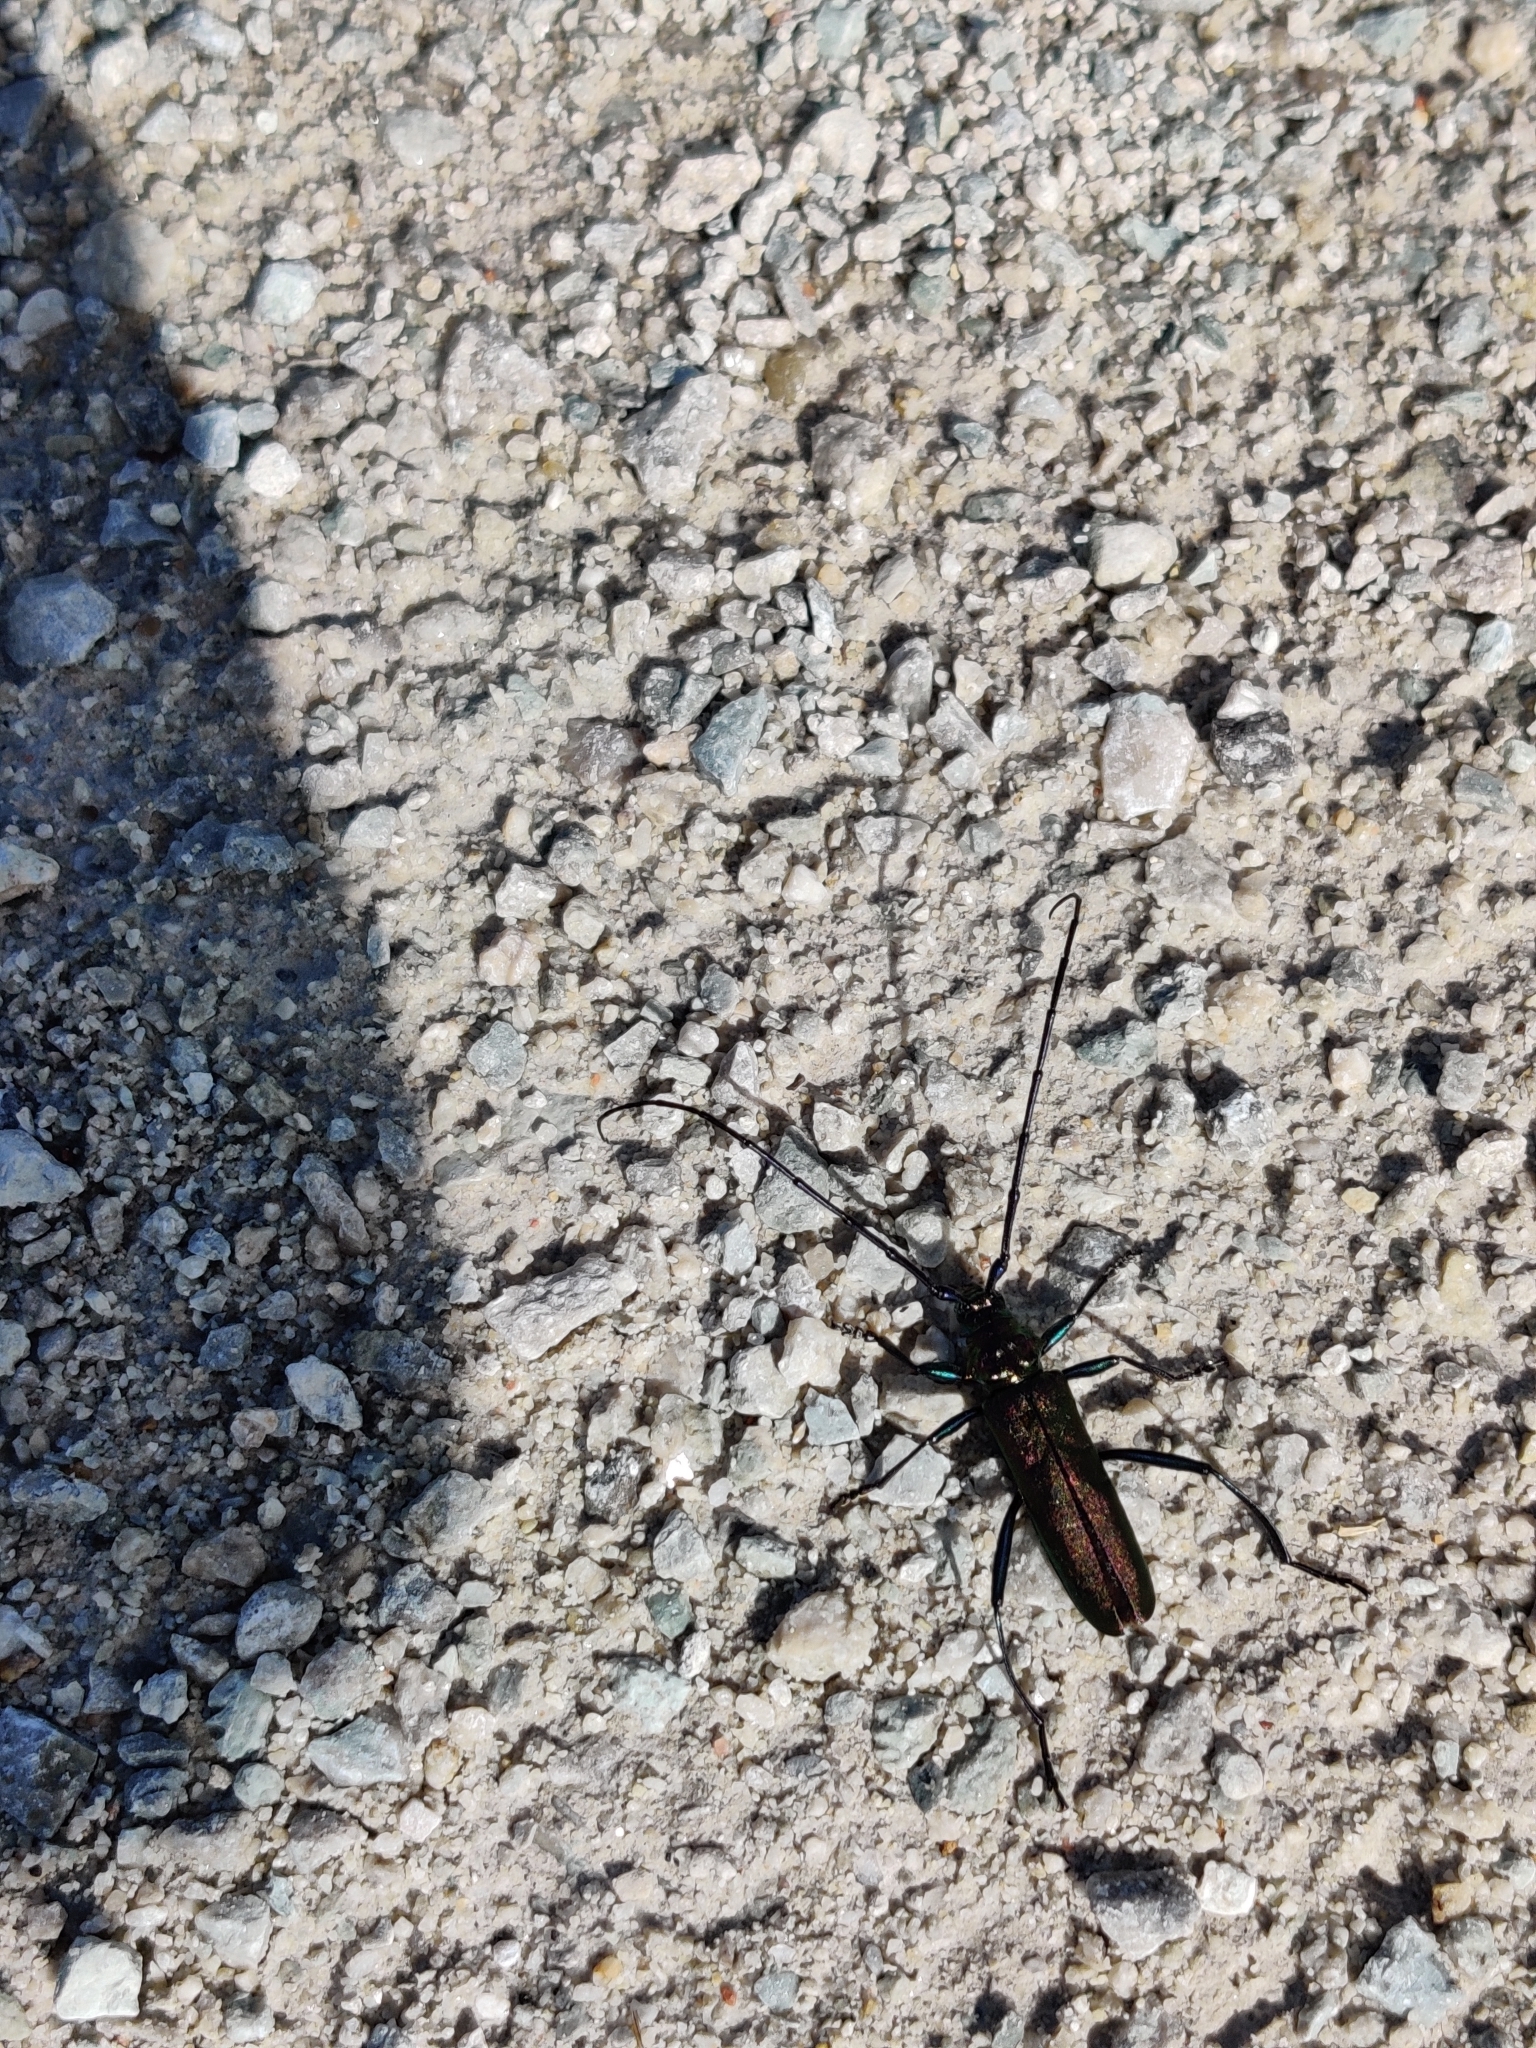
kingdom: Animalia
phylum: Arthropoda
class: Insecta
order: Coleoptera
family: Cerambycidae
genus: Aromia
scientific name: Aromia moschata
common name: Musk beetle
